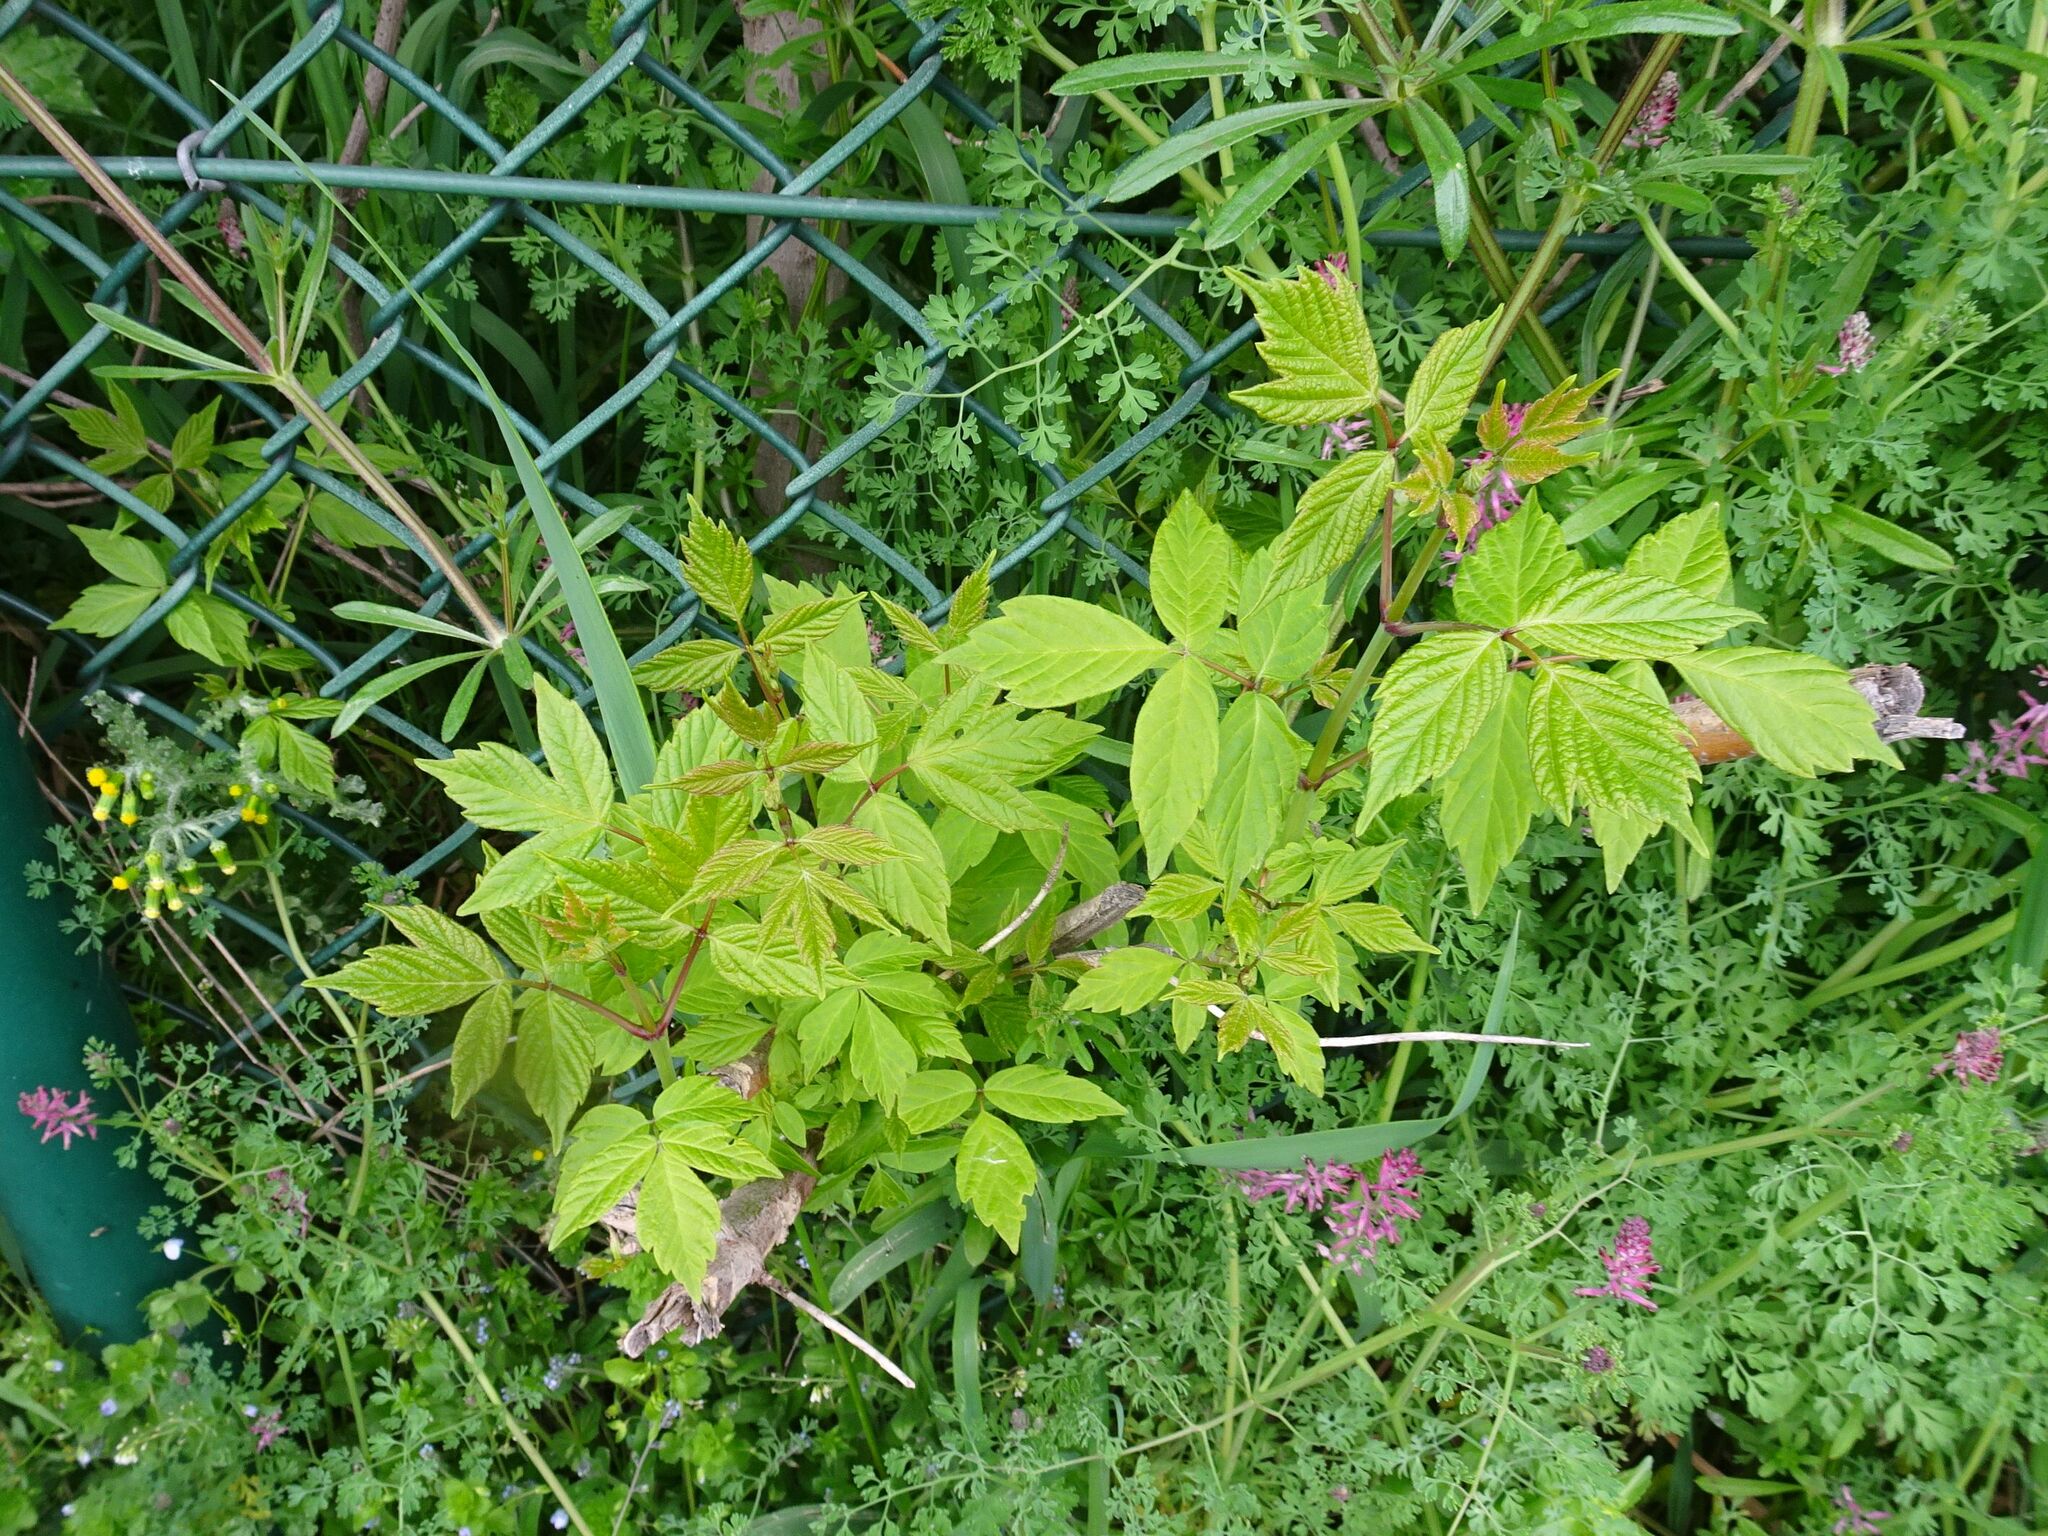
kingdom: Plantae
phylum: Tracheophyta
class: Magnoliopsida
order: Sapindales
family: Sapindaceae
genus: Acer
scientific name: Acer negundo
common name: Ashleaf maple
